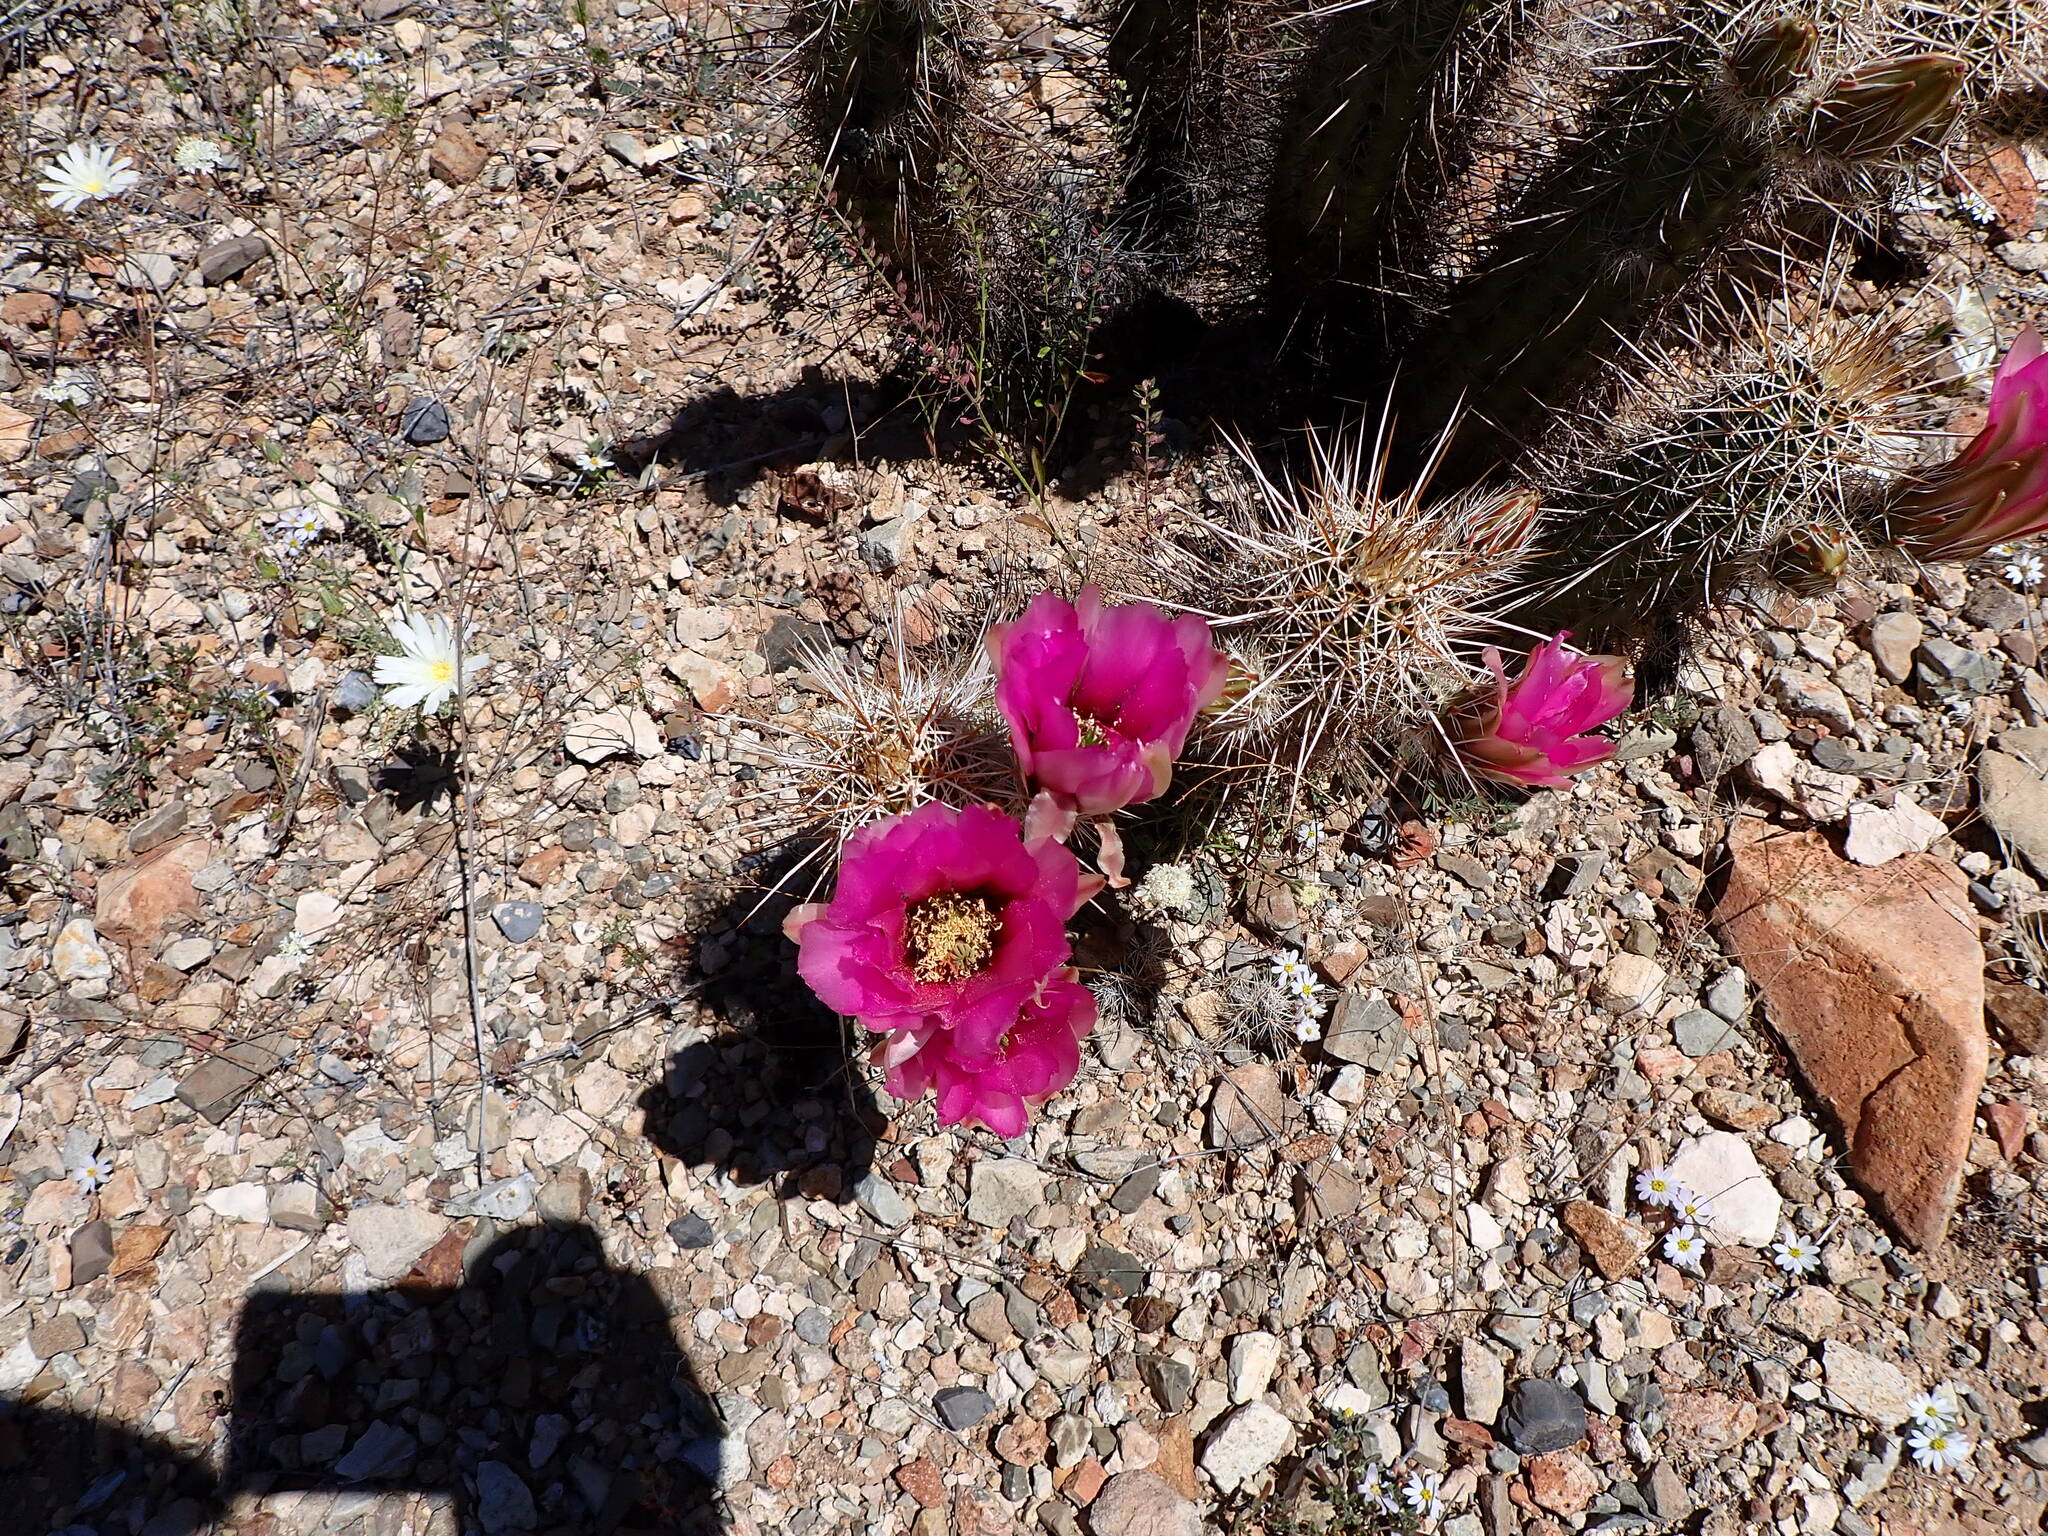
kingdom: Plantae
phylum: Tracheophyta
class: Magnoliopsida
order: Caryophyllales
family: Cactaceae
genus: Echinocereus
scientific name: Echinocereus fasciculatus
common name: Bundle hedgehog
